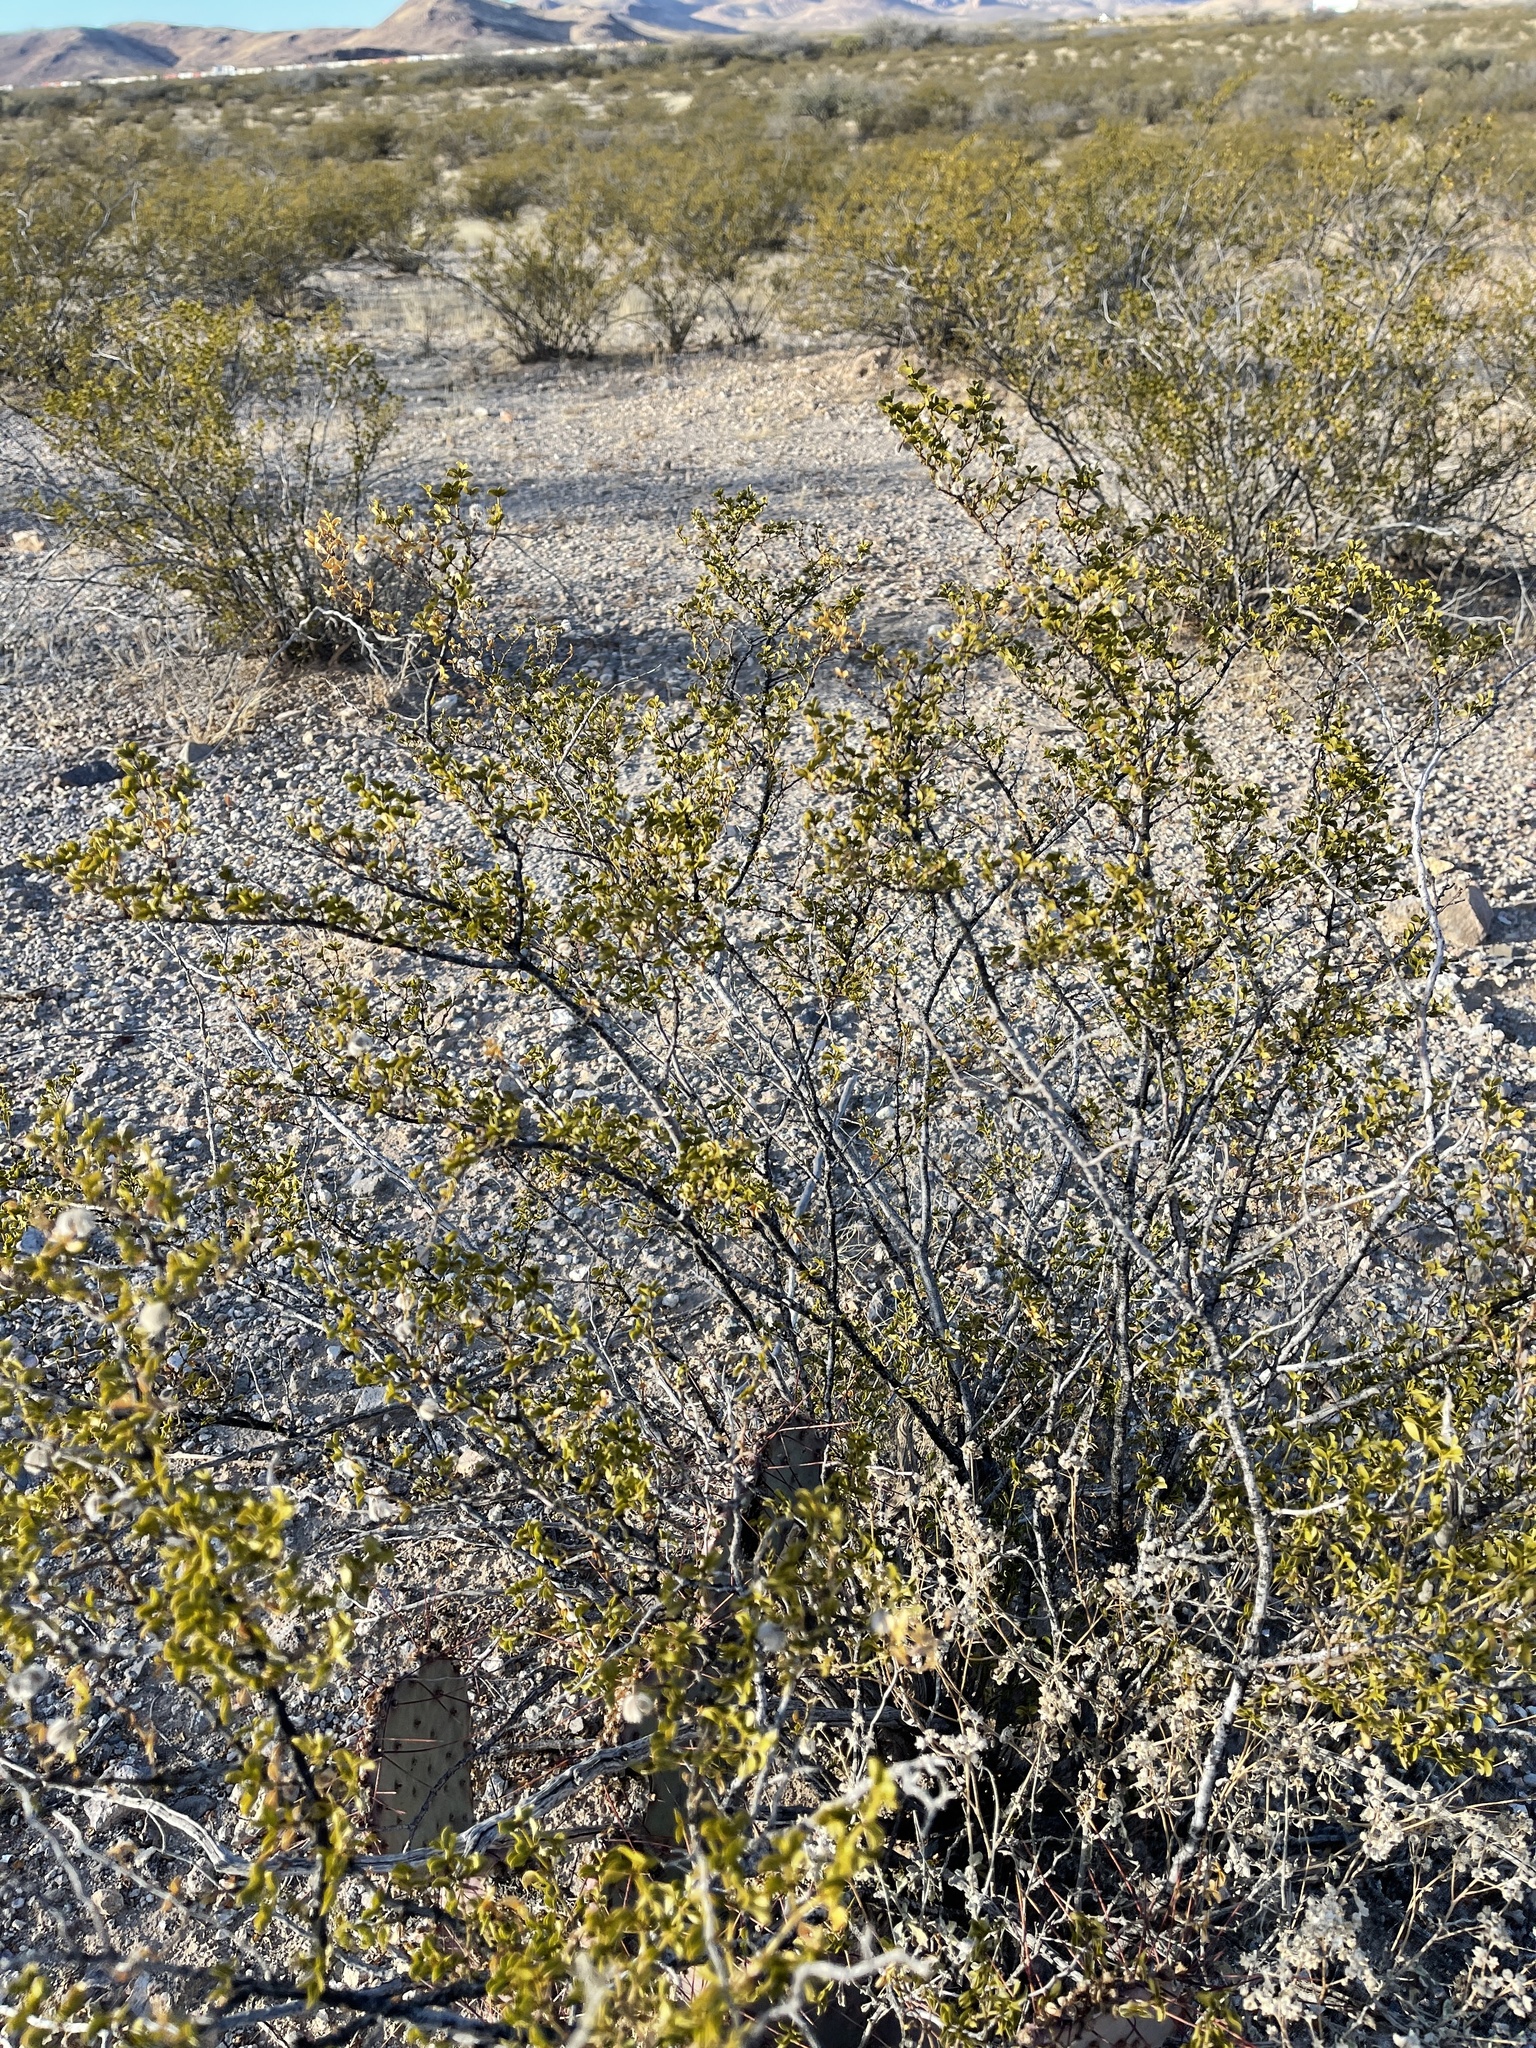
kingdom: Plantae
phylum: Tracheophyta
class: Magnoliopsida
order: Zygophyllales
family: Zygophyllaceae
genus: Larrea
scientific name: Larrea tridentata
